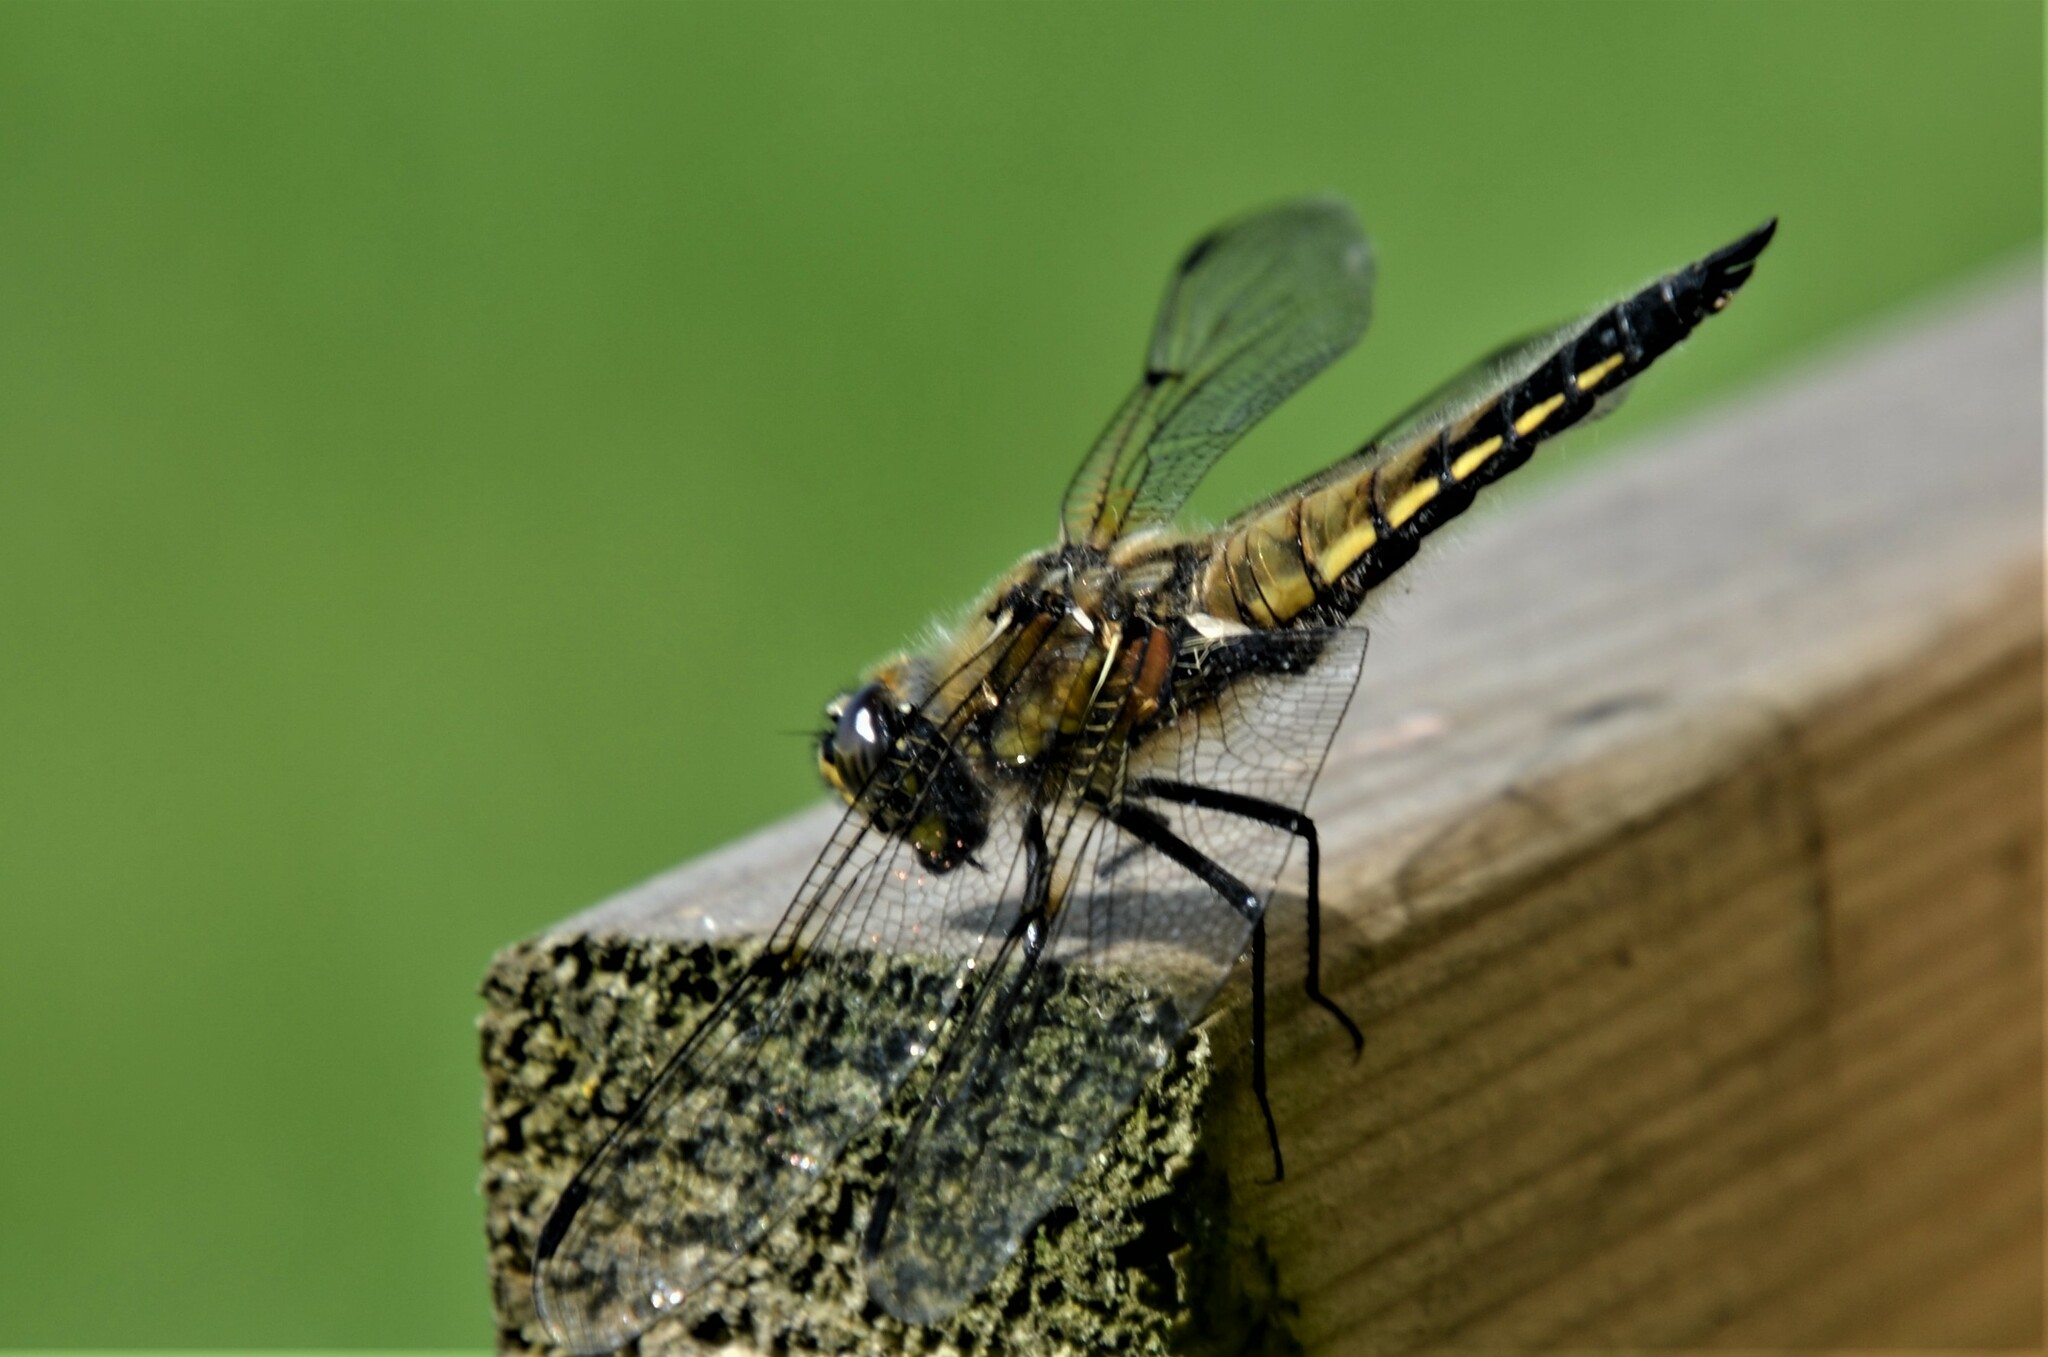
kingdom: Animalia
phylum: Arthropoda
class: Insecta
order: Odonata
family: Libellulidae
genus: Libellula
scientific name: Libellula quadrimaculata
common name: Four-spotted chaser
